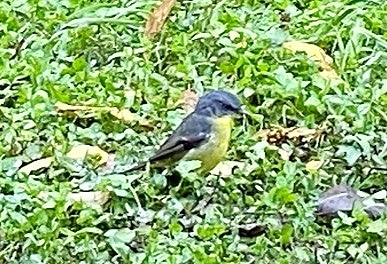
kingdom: Animalia
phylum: Chordata
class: Aves
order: Passeriformes
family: Petroicidae
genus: Eopsaltria
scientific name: Eopsaltria australis
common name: Eastern yellow robin
